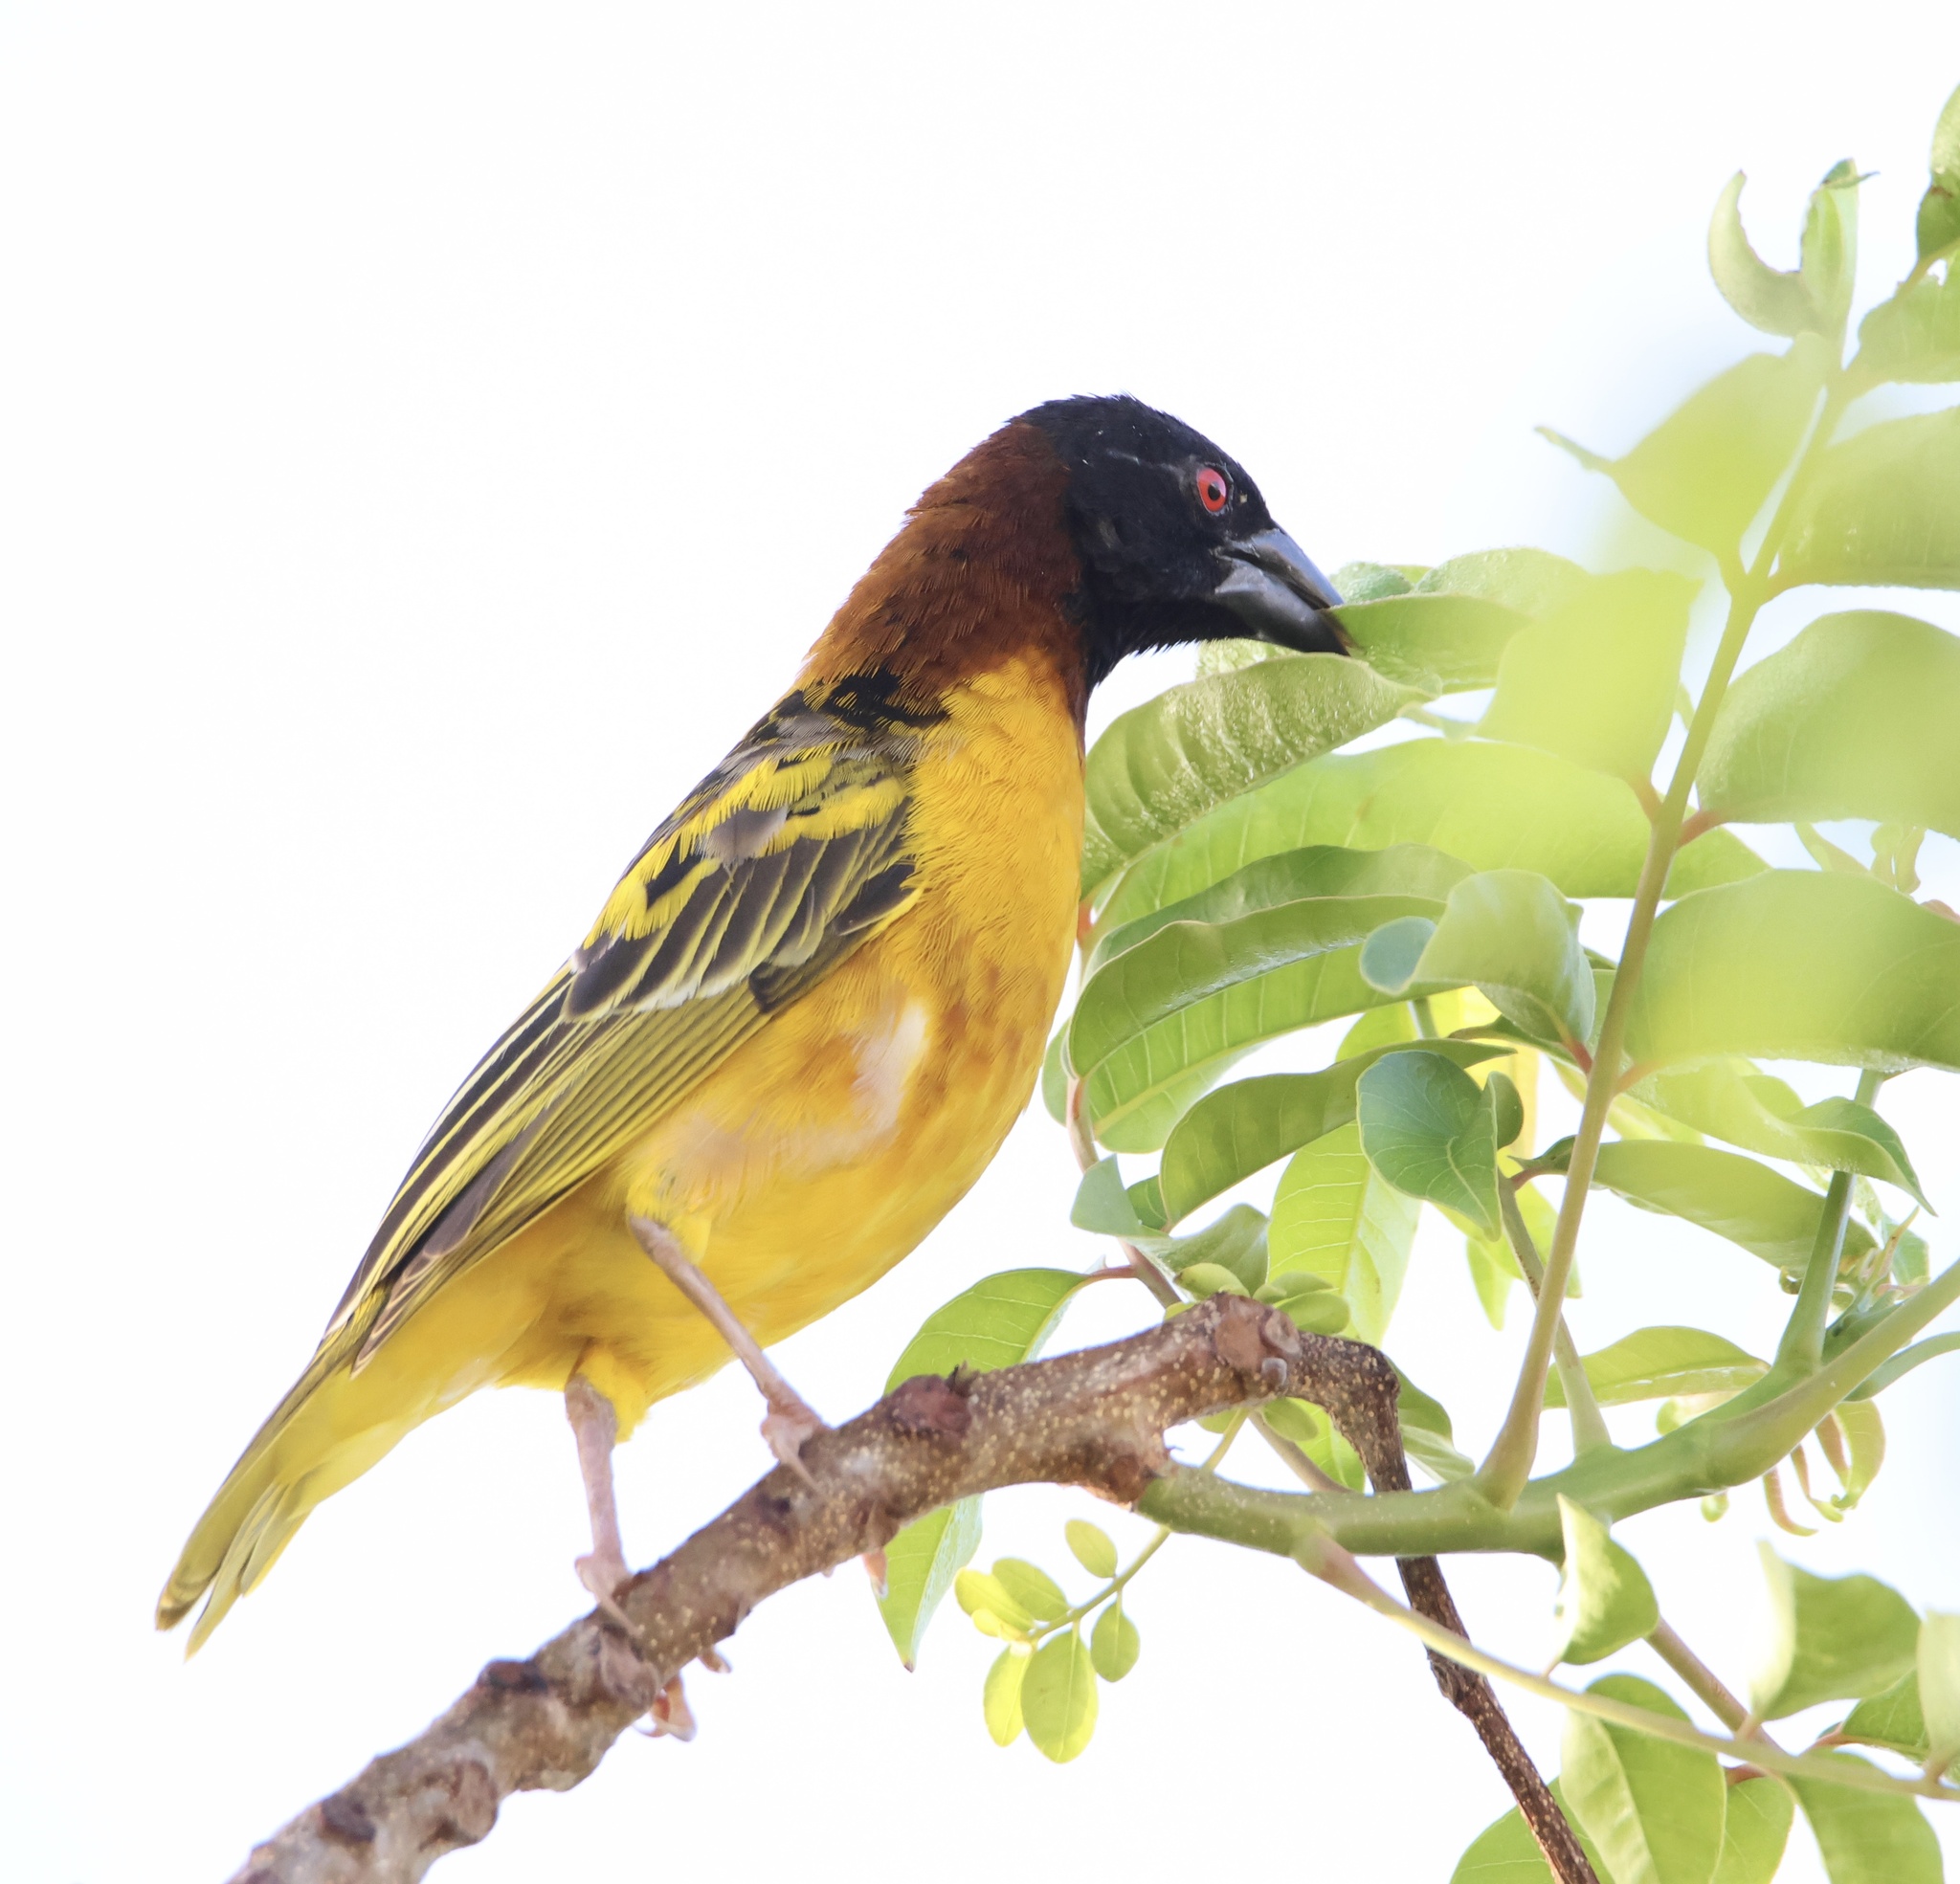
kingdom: Animalia
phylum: Chordata
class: Aves
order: Passeriformes
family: Ploceidae
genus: Ploceus
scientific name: Ploceus cucullatus
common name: Village weaver
